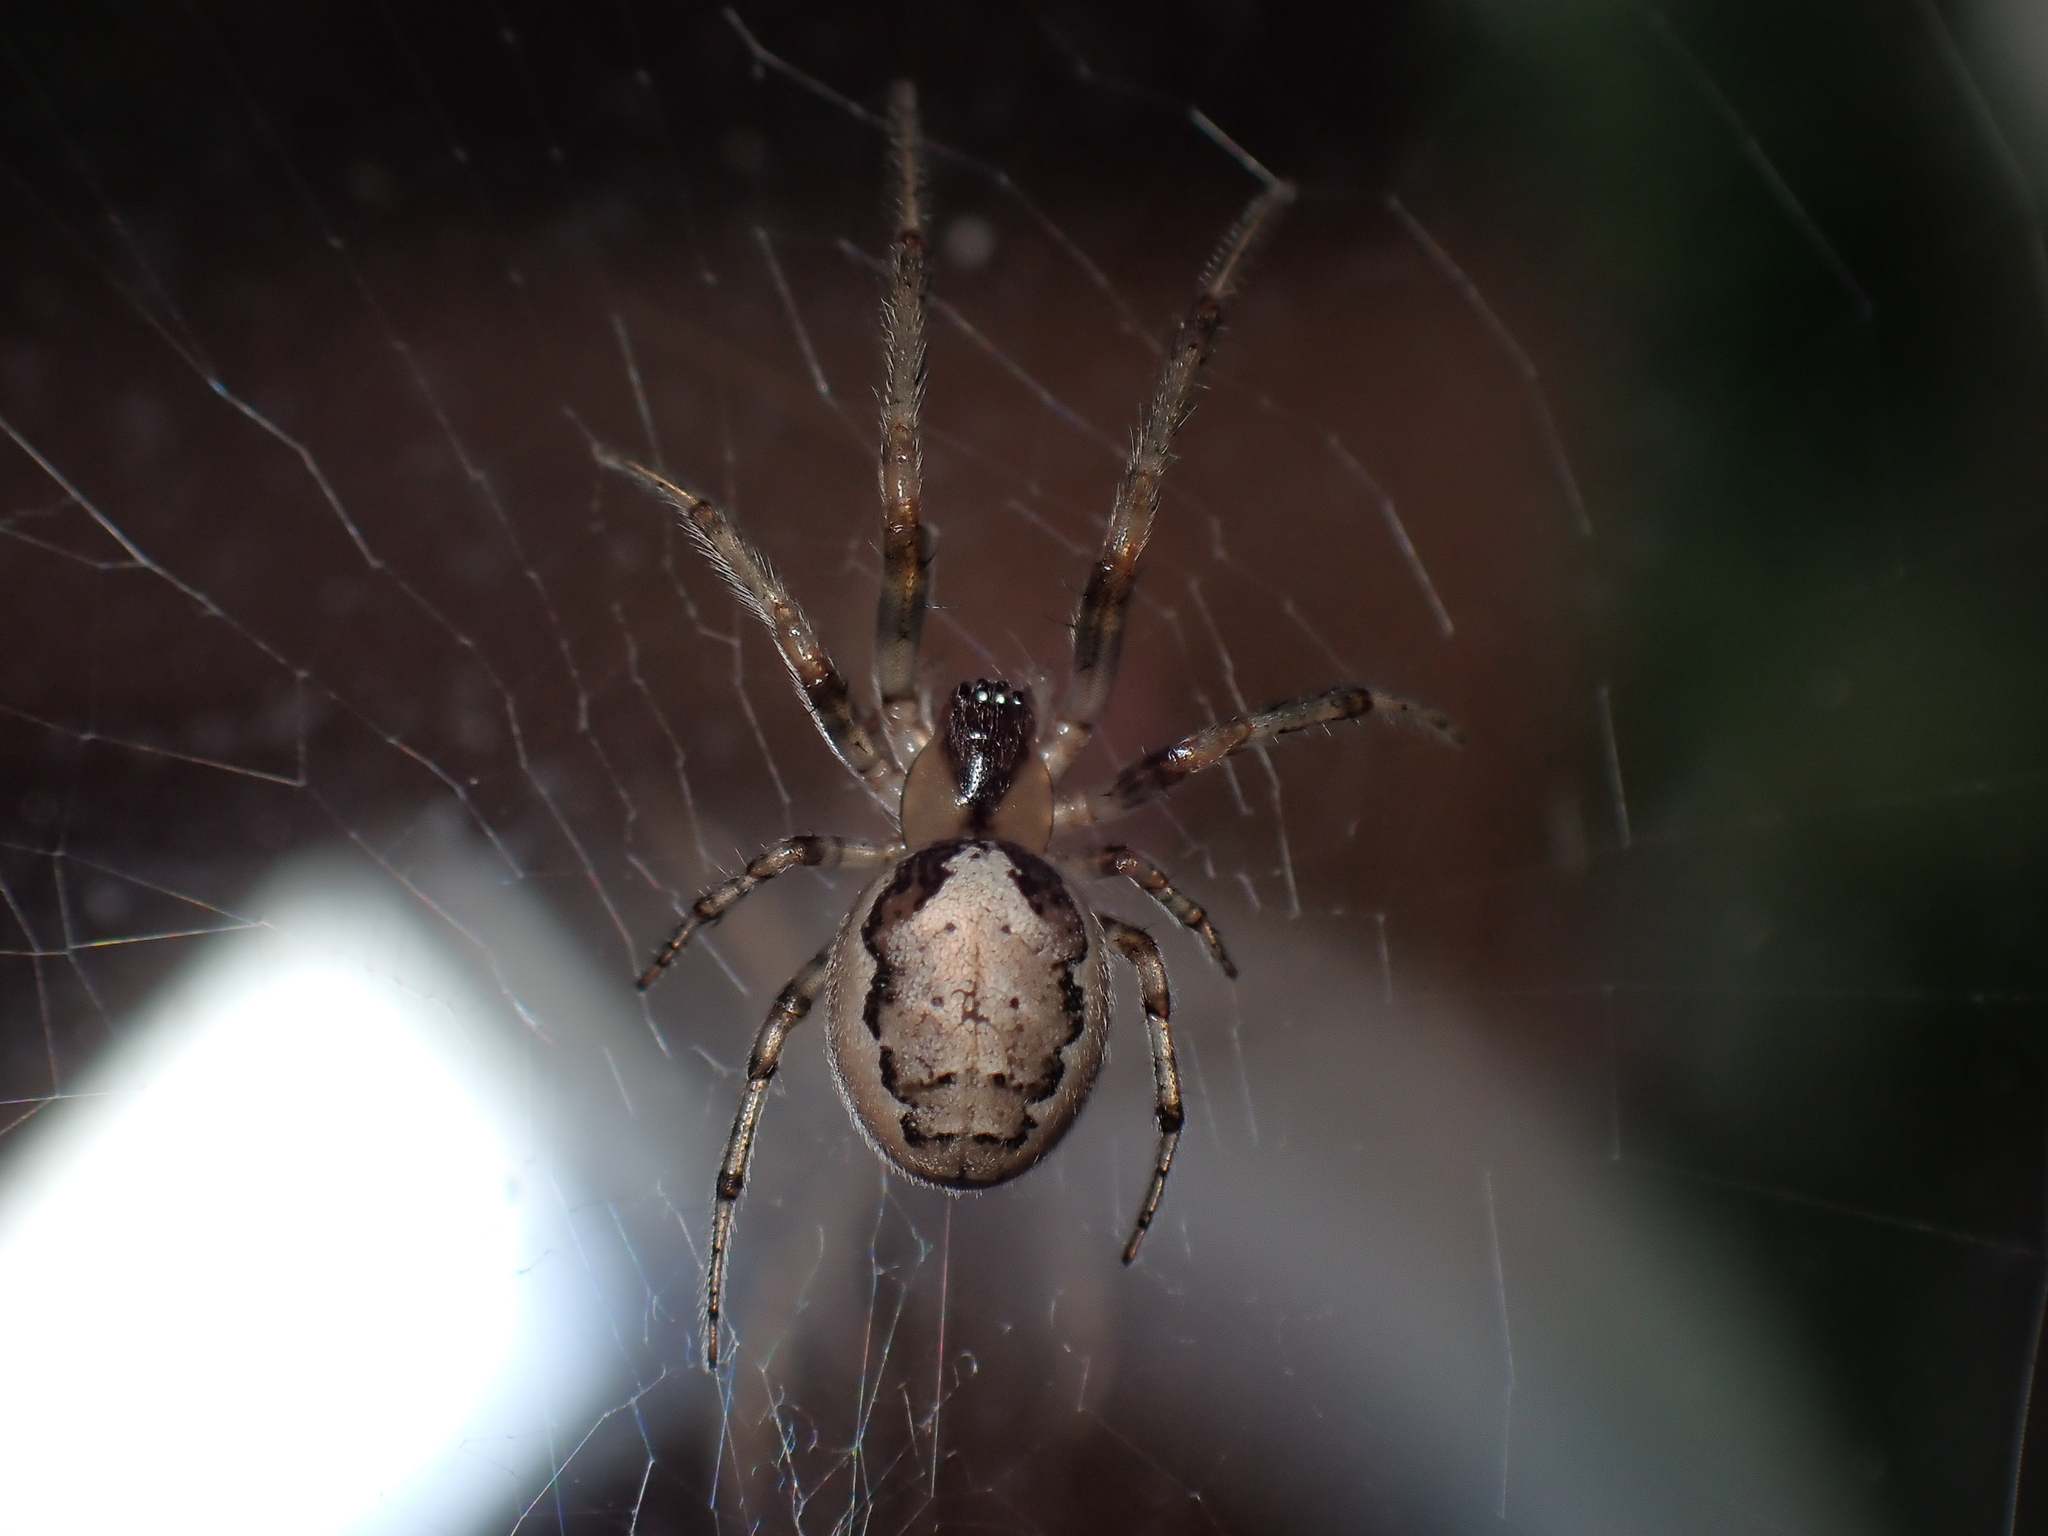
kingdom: Animalia
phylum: Arthropoda
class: Arachnida
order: Araneae
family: Araneidae
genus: Zygiella
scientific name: Zygiella x-notata
